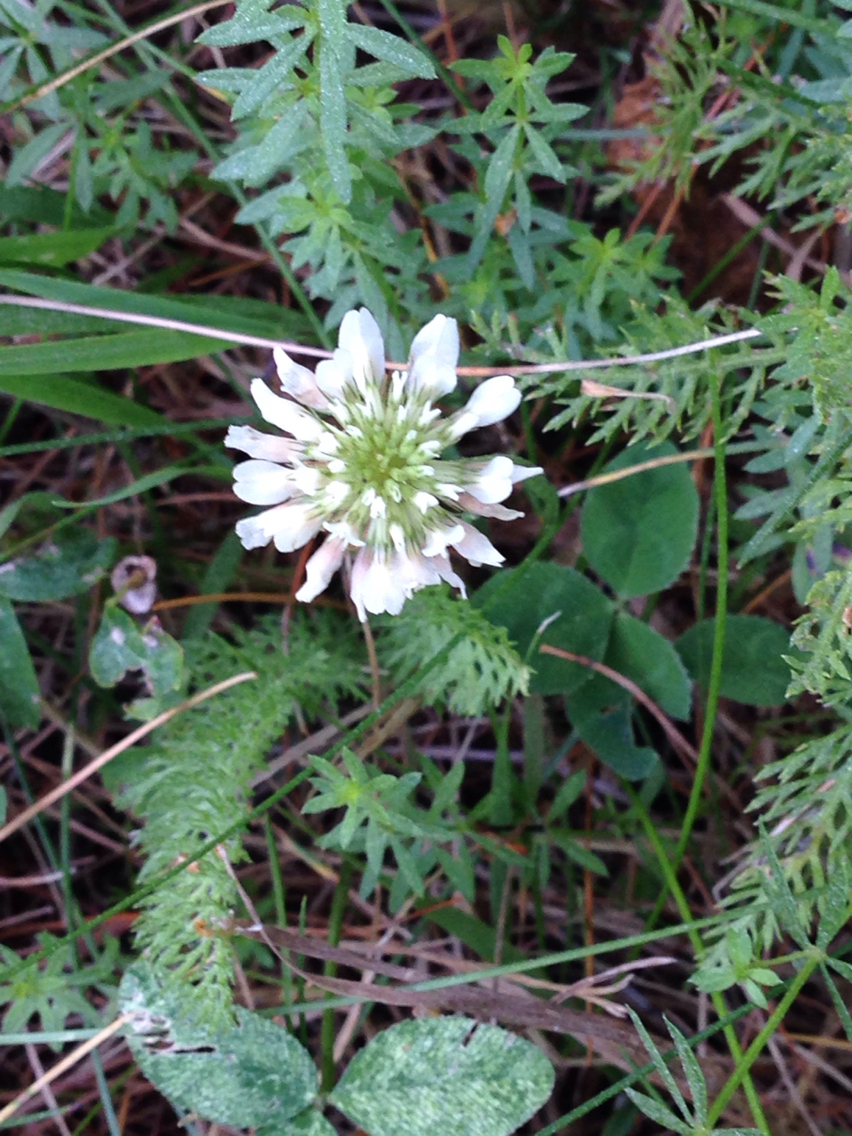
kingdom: Plantae
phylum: Tracheophyta
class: Magnoliopsida
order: Fabales
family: Fabaceae
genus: Trifolium
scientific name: Trifolium repens
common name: White clover
